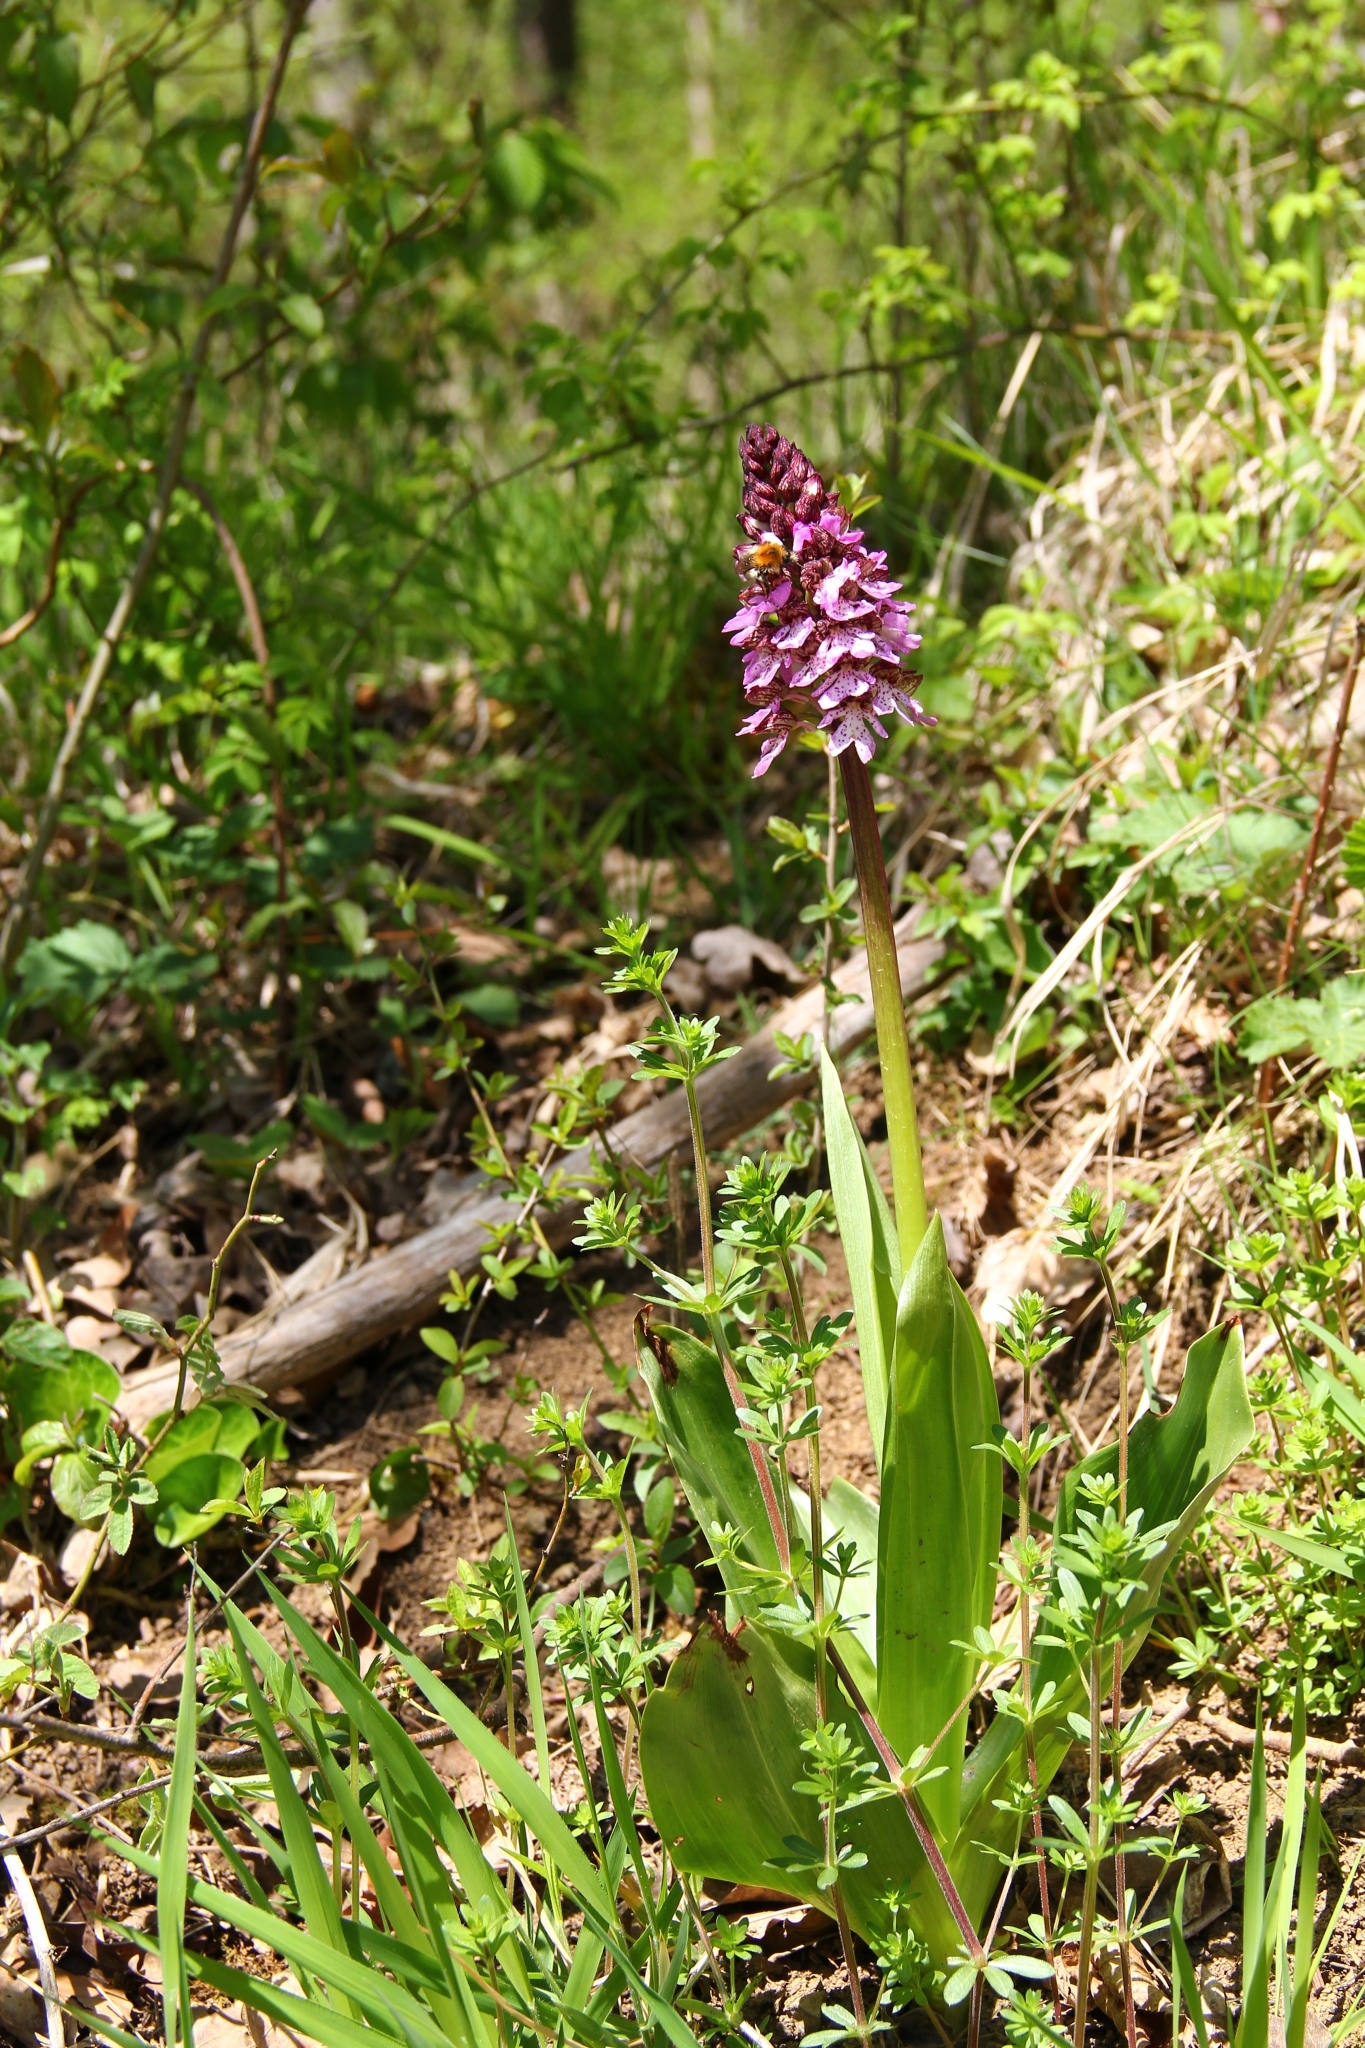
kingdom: Plantae
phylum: Tracheophyta
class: Liliopsida
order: Asparagales
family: Orchidaceae
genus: Orchis
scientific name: Orchis purpurea
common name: Lady orchid
